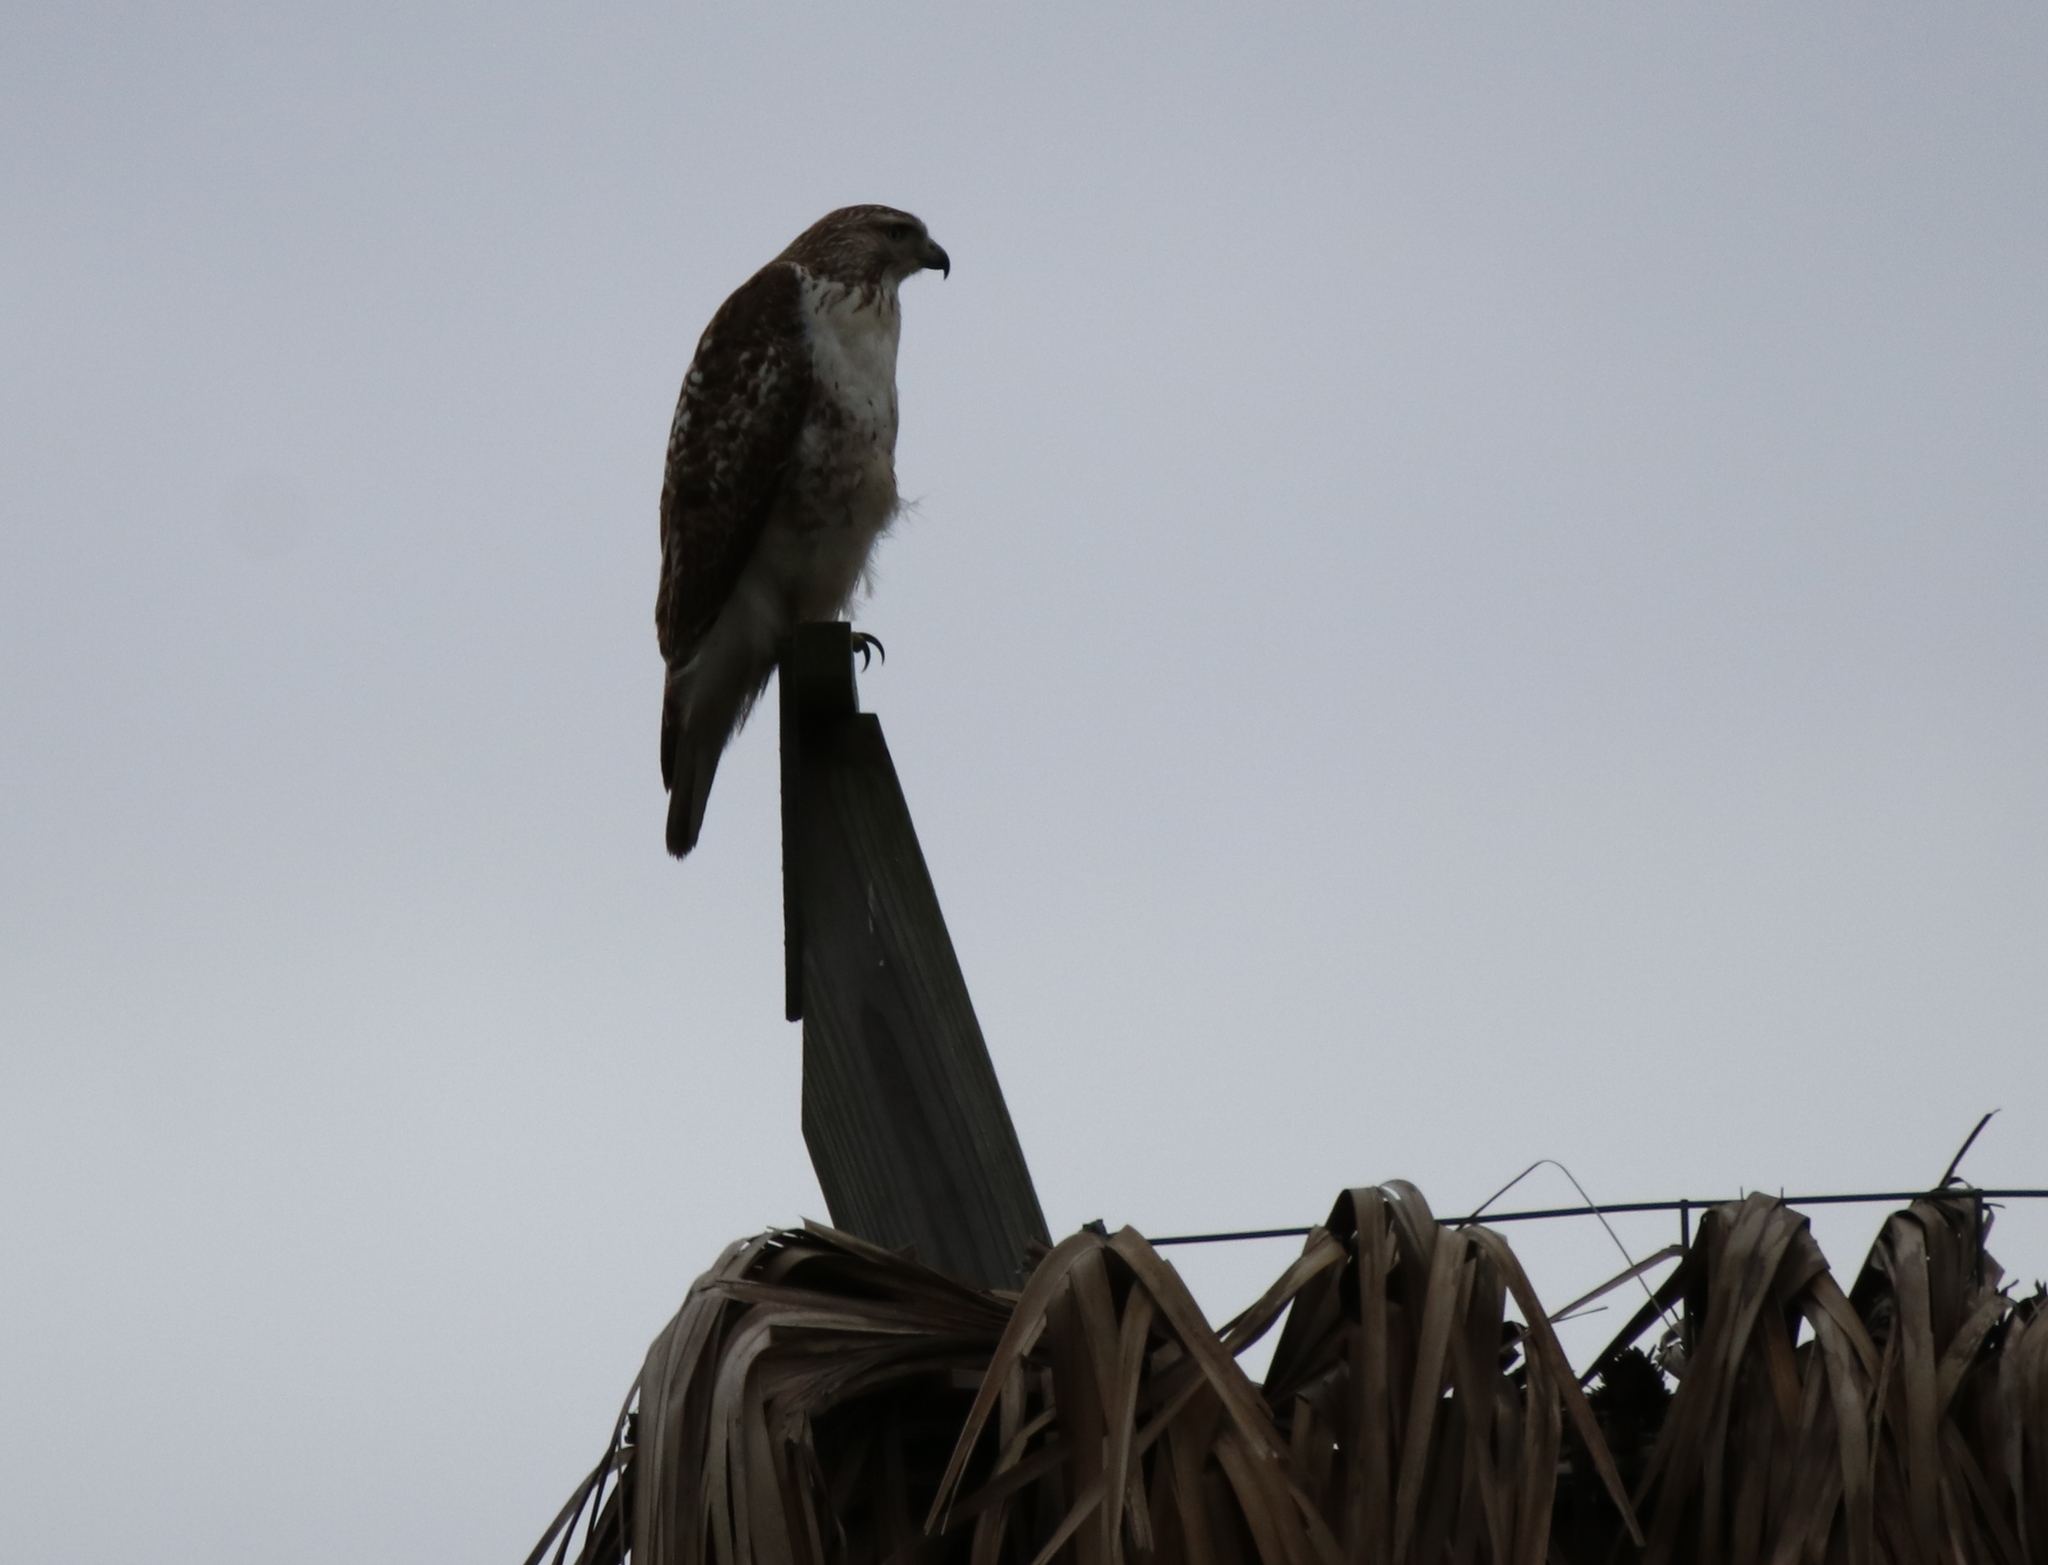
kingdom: Animalia
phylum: Chordata
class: Aves
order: Accipitriformes
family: Accipitridae
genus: Buteo
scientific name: Buteo jamaicensis
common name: Red-tailed hawk
